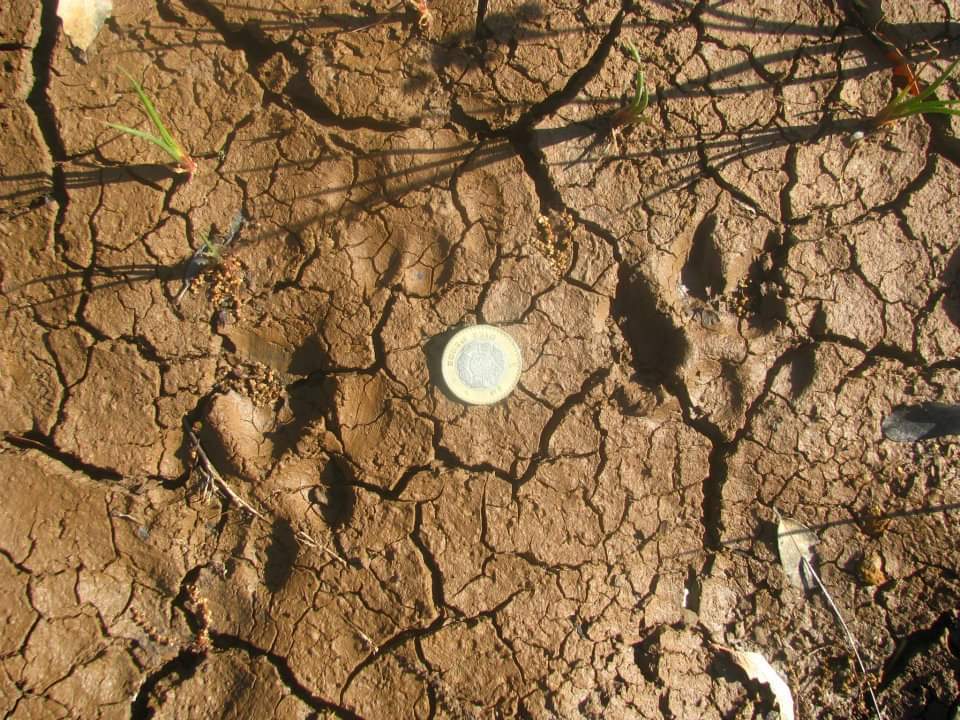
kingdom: Animalia
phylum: Chordata
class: Mammalia
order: Carnivora
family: Canidae
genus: Canis
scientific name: Canis latrans
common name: Coyote
